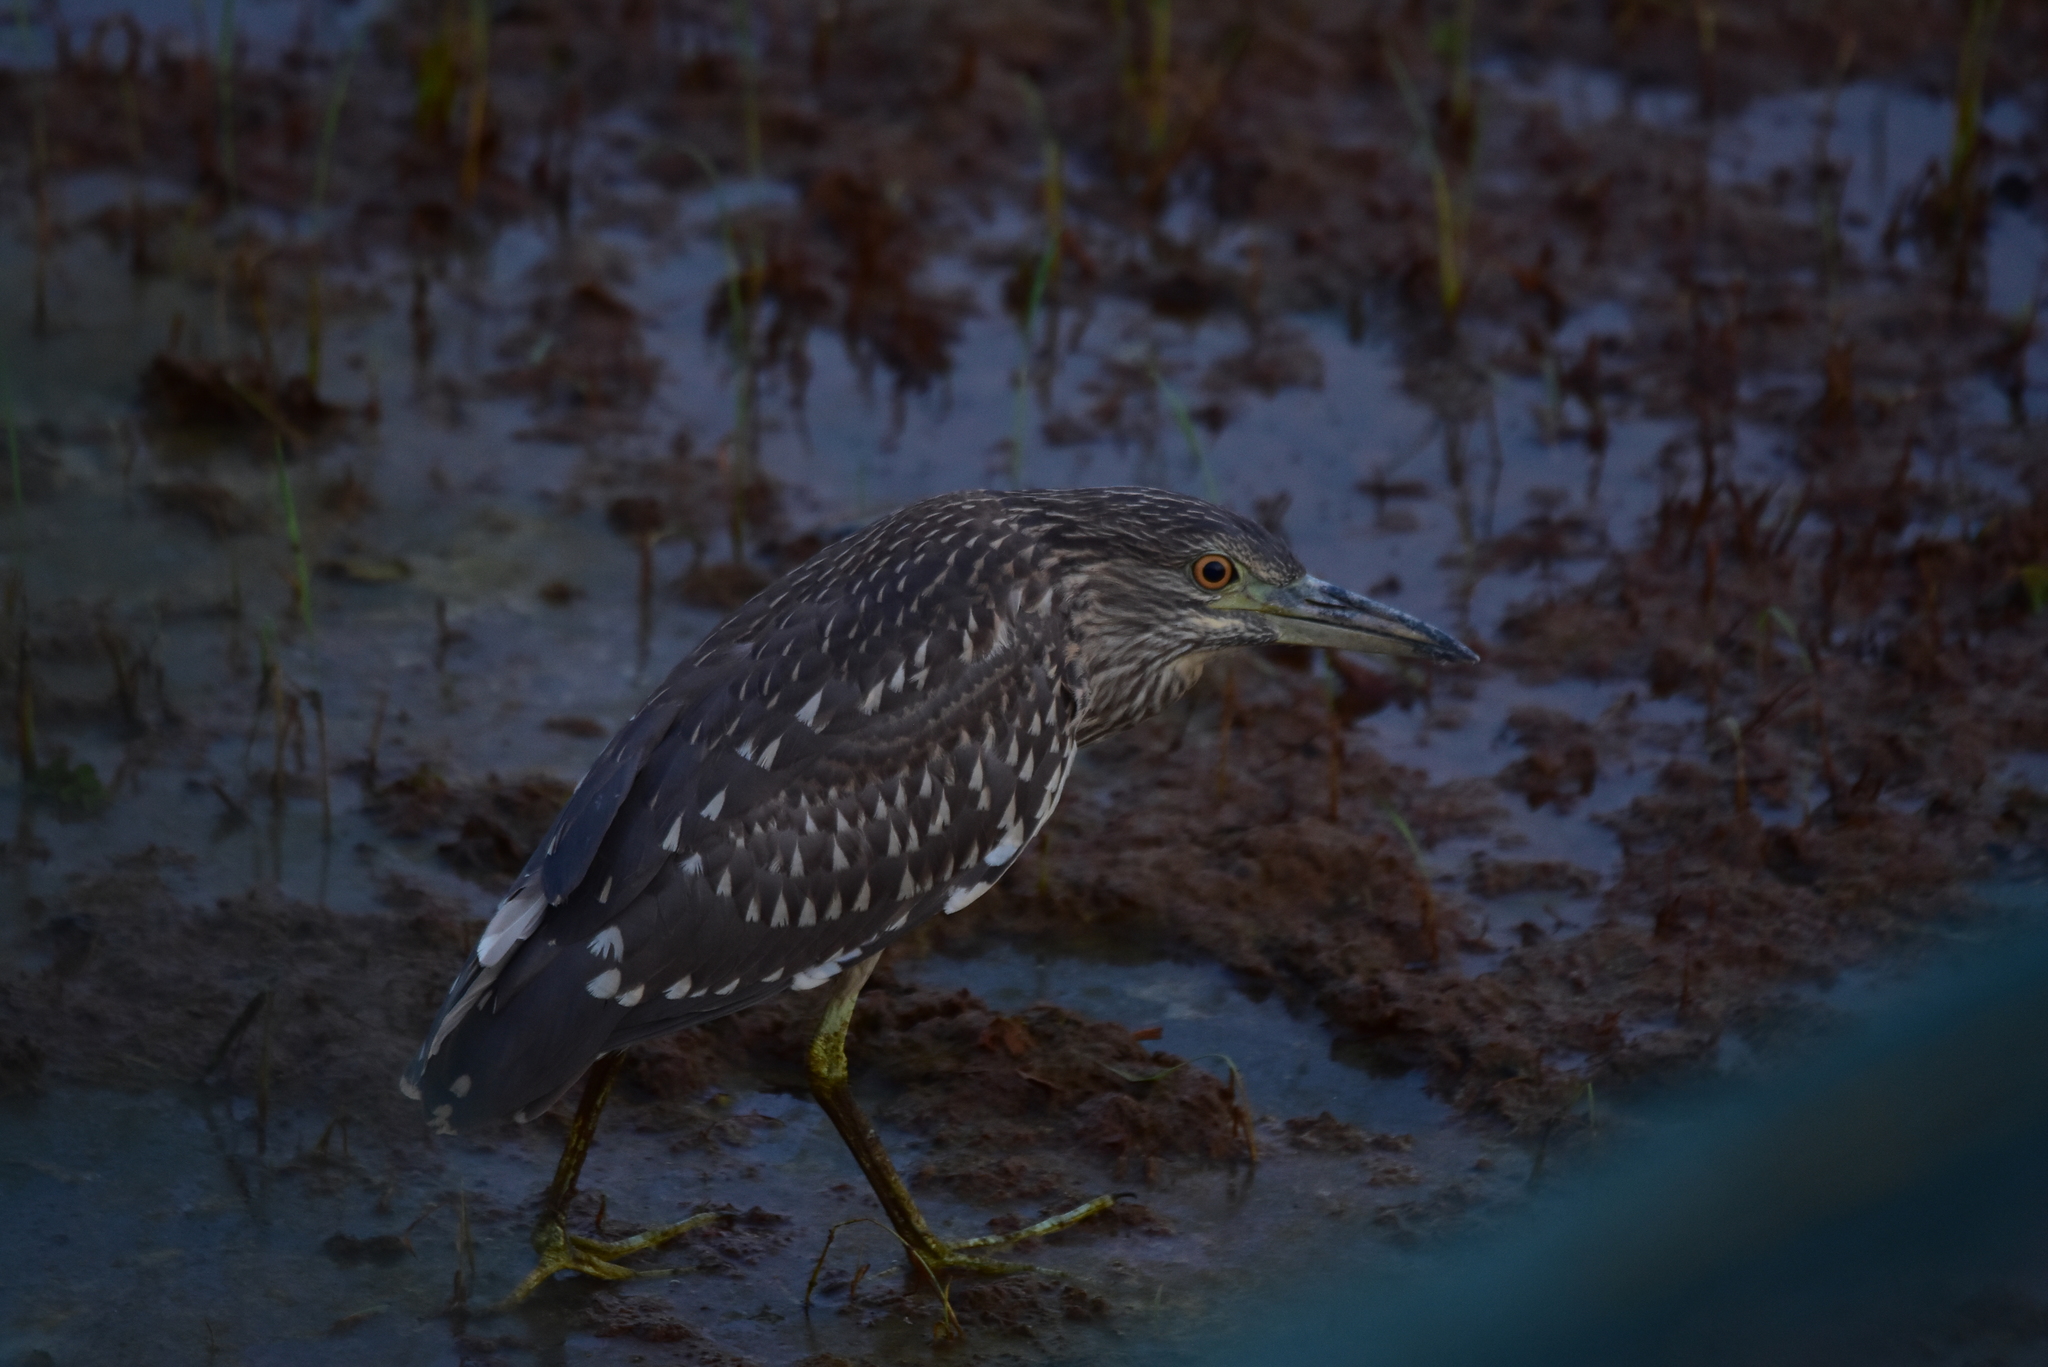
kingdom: Animalia
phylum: Chordata
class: Aves
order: Pelecaniformes
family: Ardeidae
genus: Nycticorax
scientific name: Nycticorax nycticorax
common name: Black-crowned night heron
